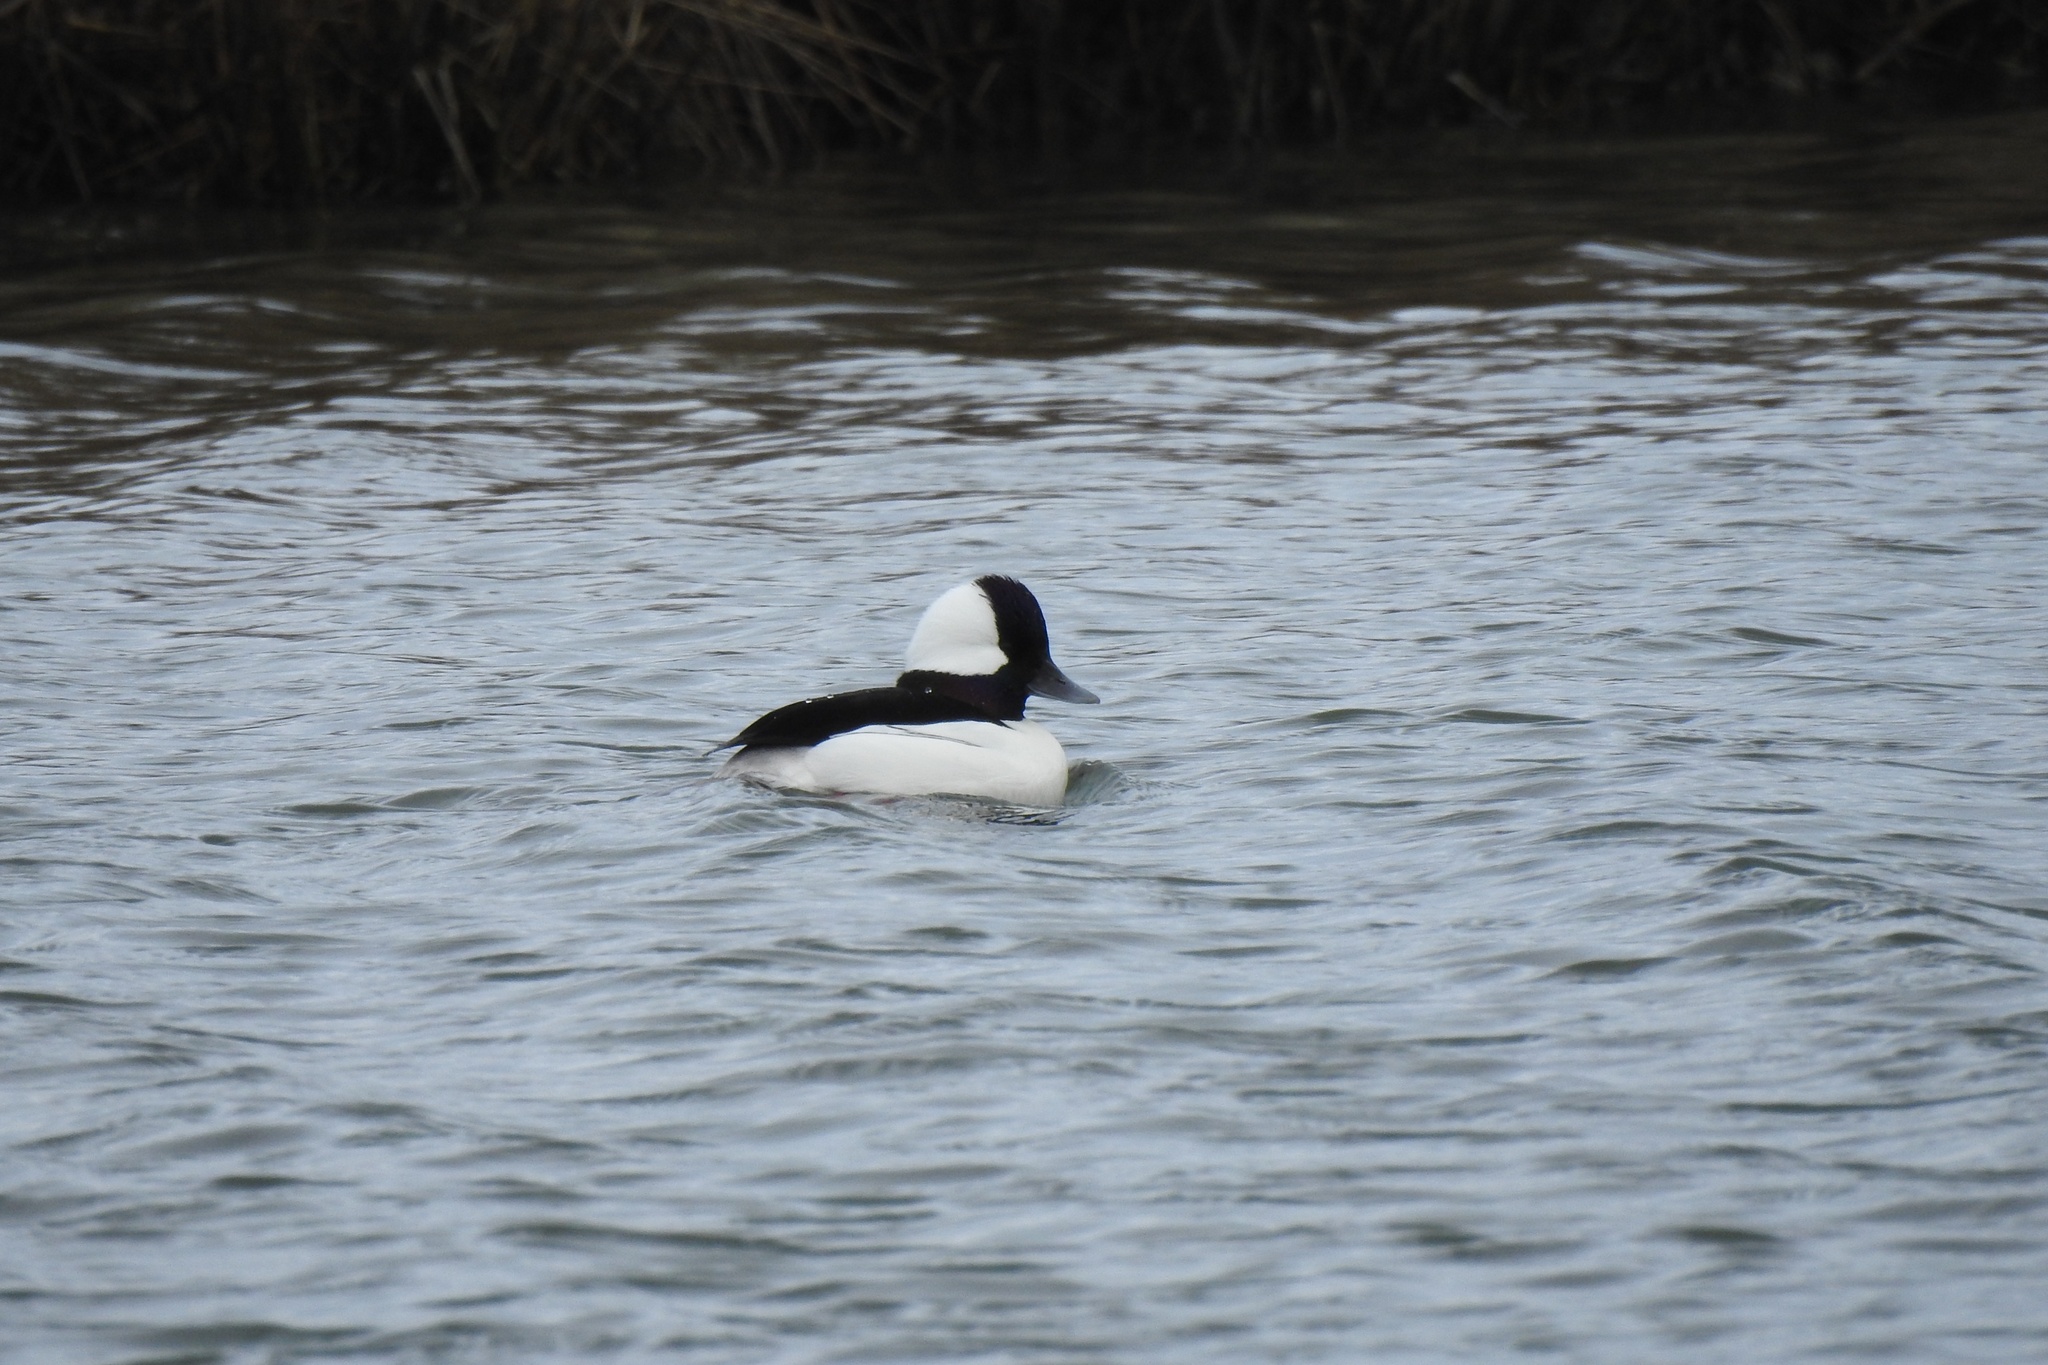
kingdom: Animalia
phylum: Chordata
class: Aves
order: Anseriformes
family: Anatidae
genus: Bucephala
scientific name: Bucephala albeola
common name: Bufflehead
